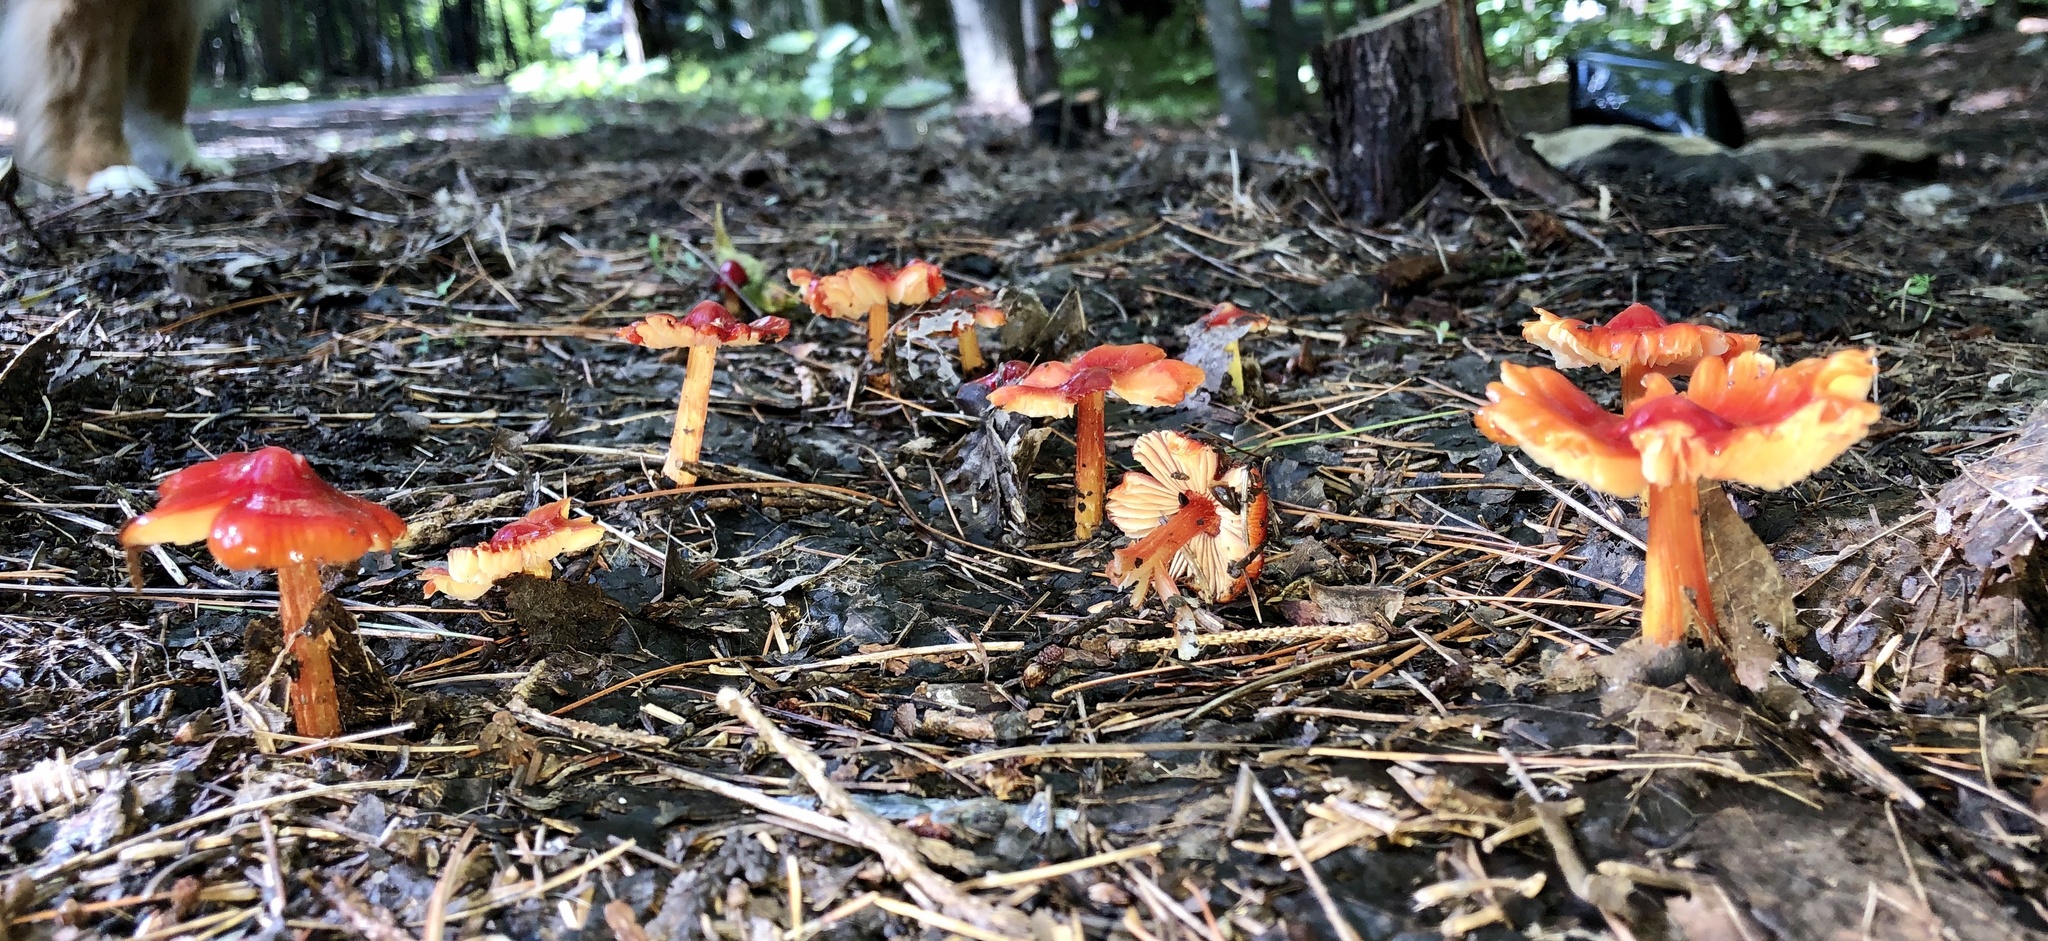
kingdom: Fungi
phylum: Basidiomycota
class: Agaricomycetes
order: Agaricales
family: Hygrophoraceae
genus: Hygrocybe
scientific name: Hygrocybe conica
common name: Blackening wax-cap
